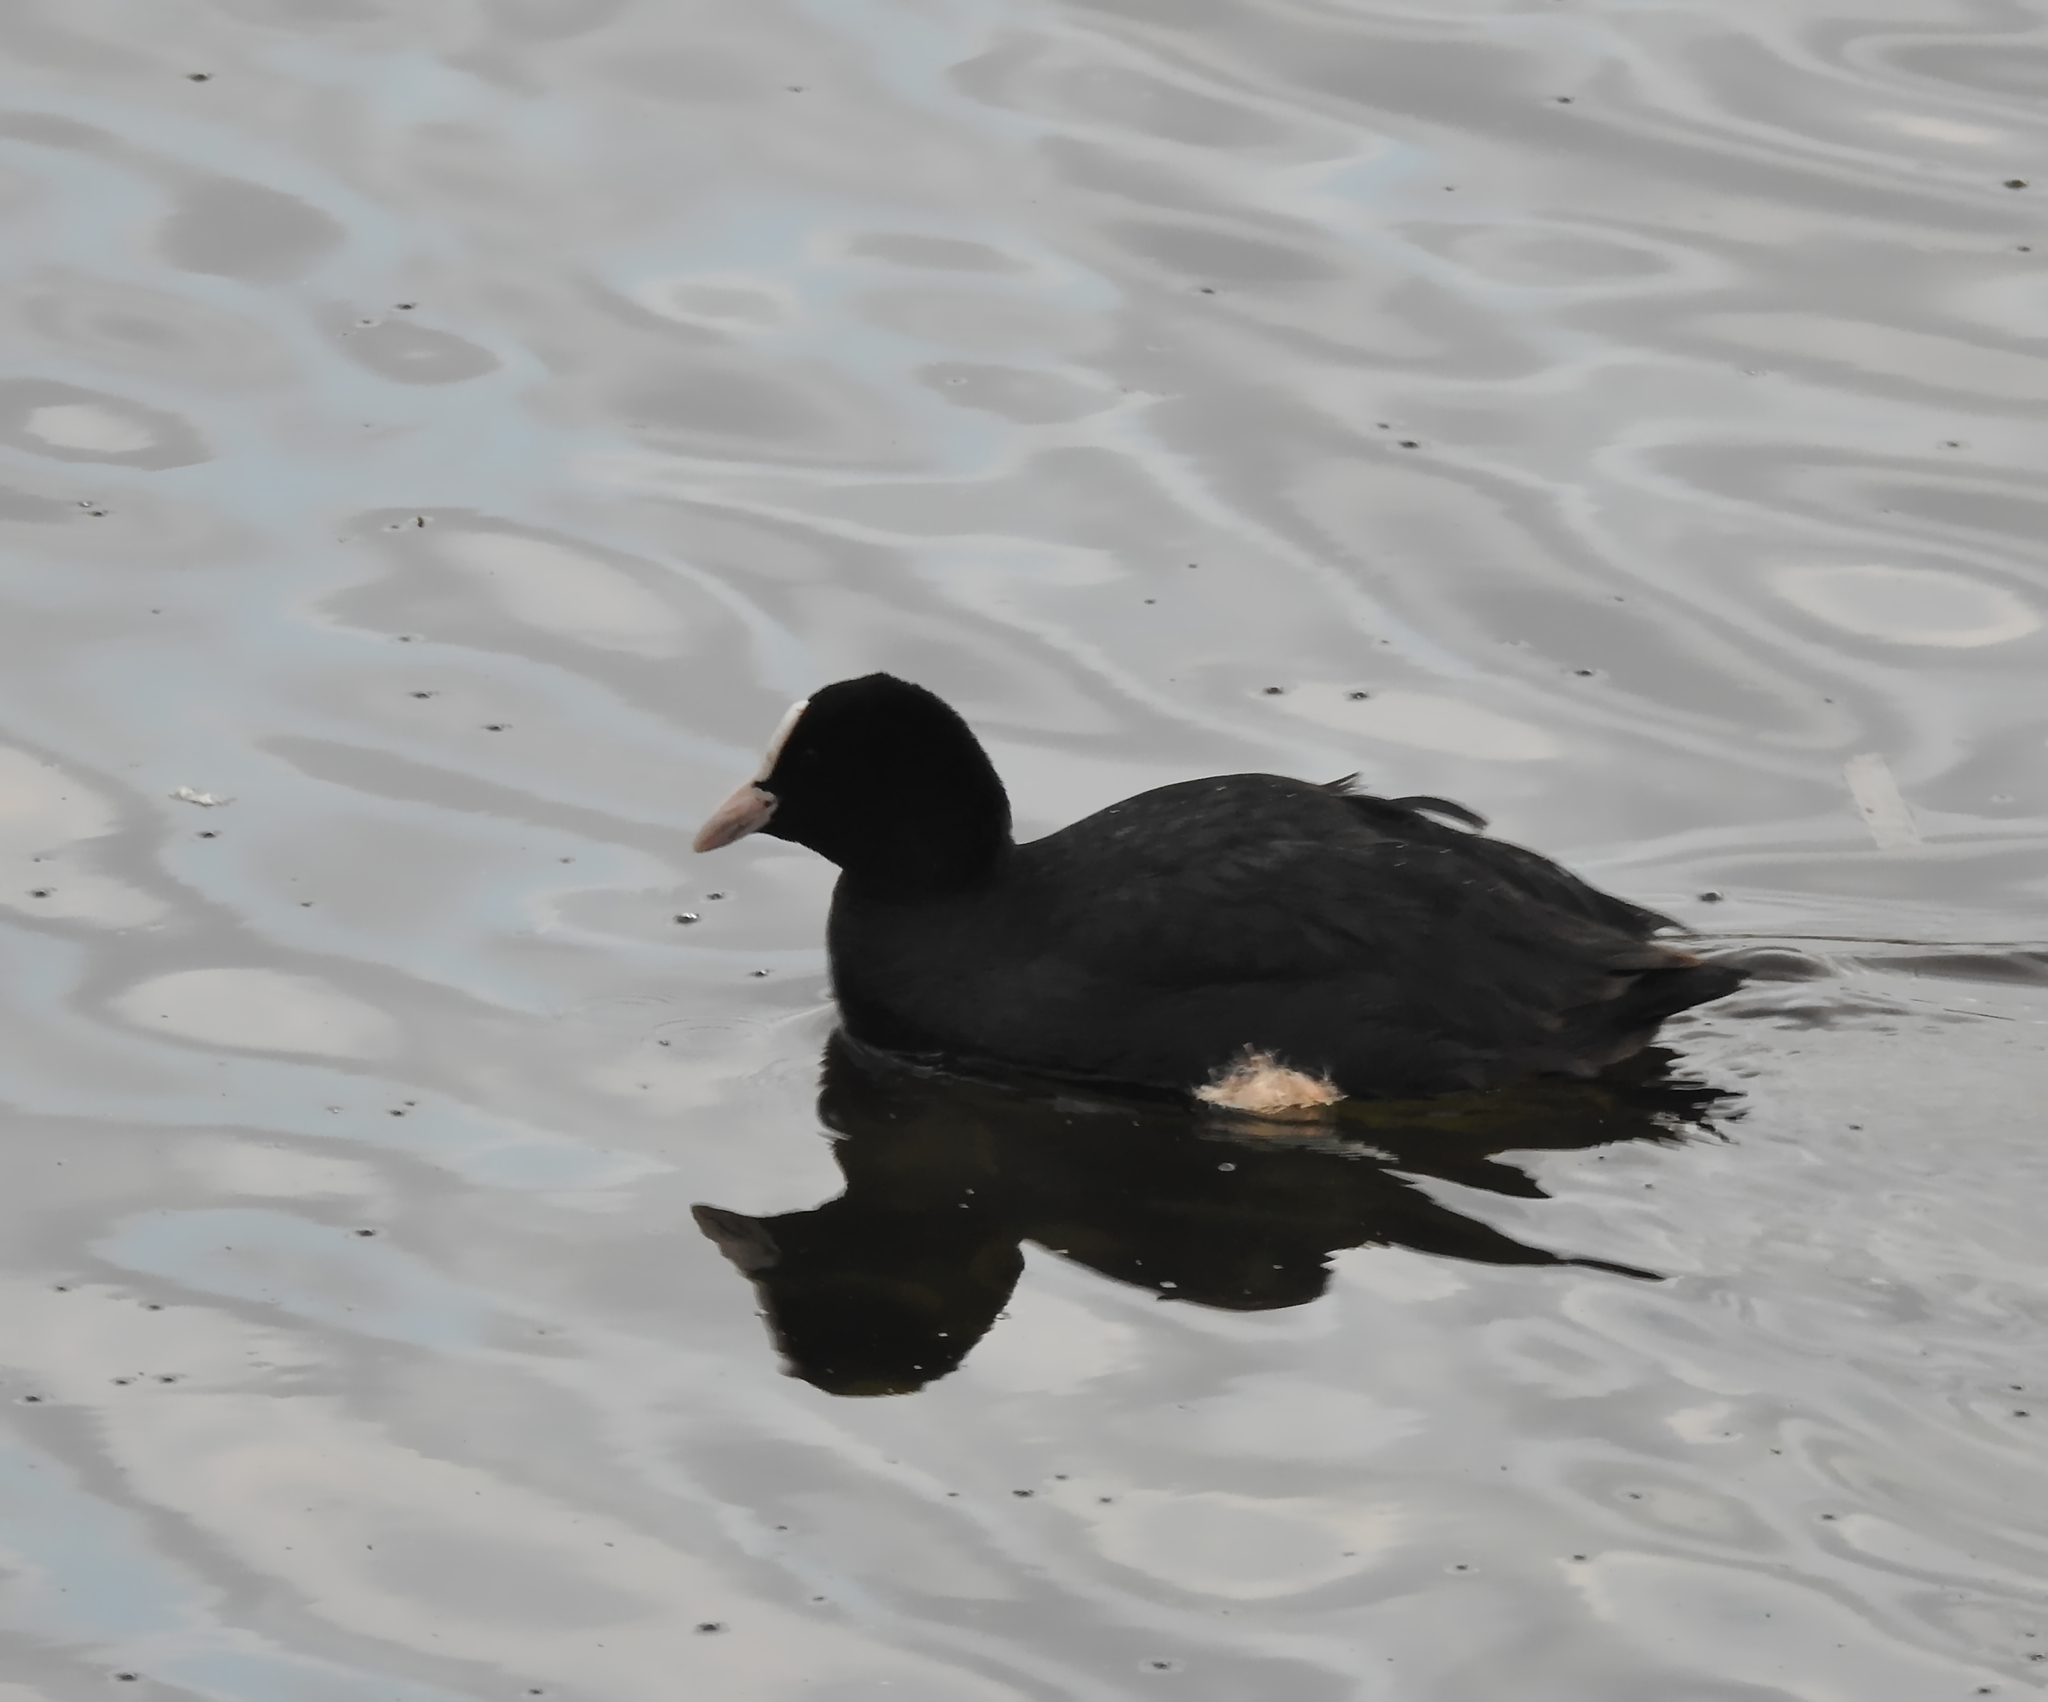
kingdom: Animalia
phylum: Chordata
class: Aves
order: Gruiformes
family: Rallidae
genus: Fulica
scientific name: Fulica atra
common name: Eurasian coot
